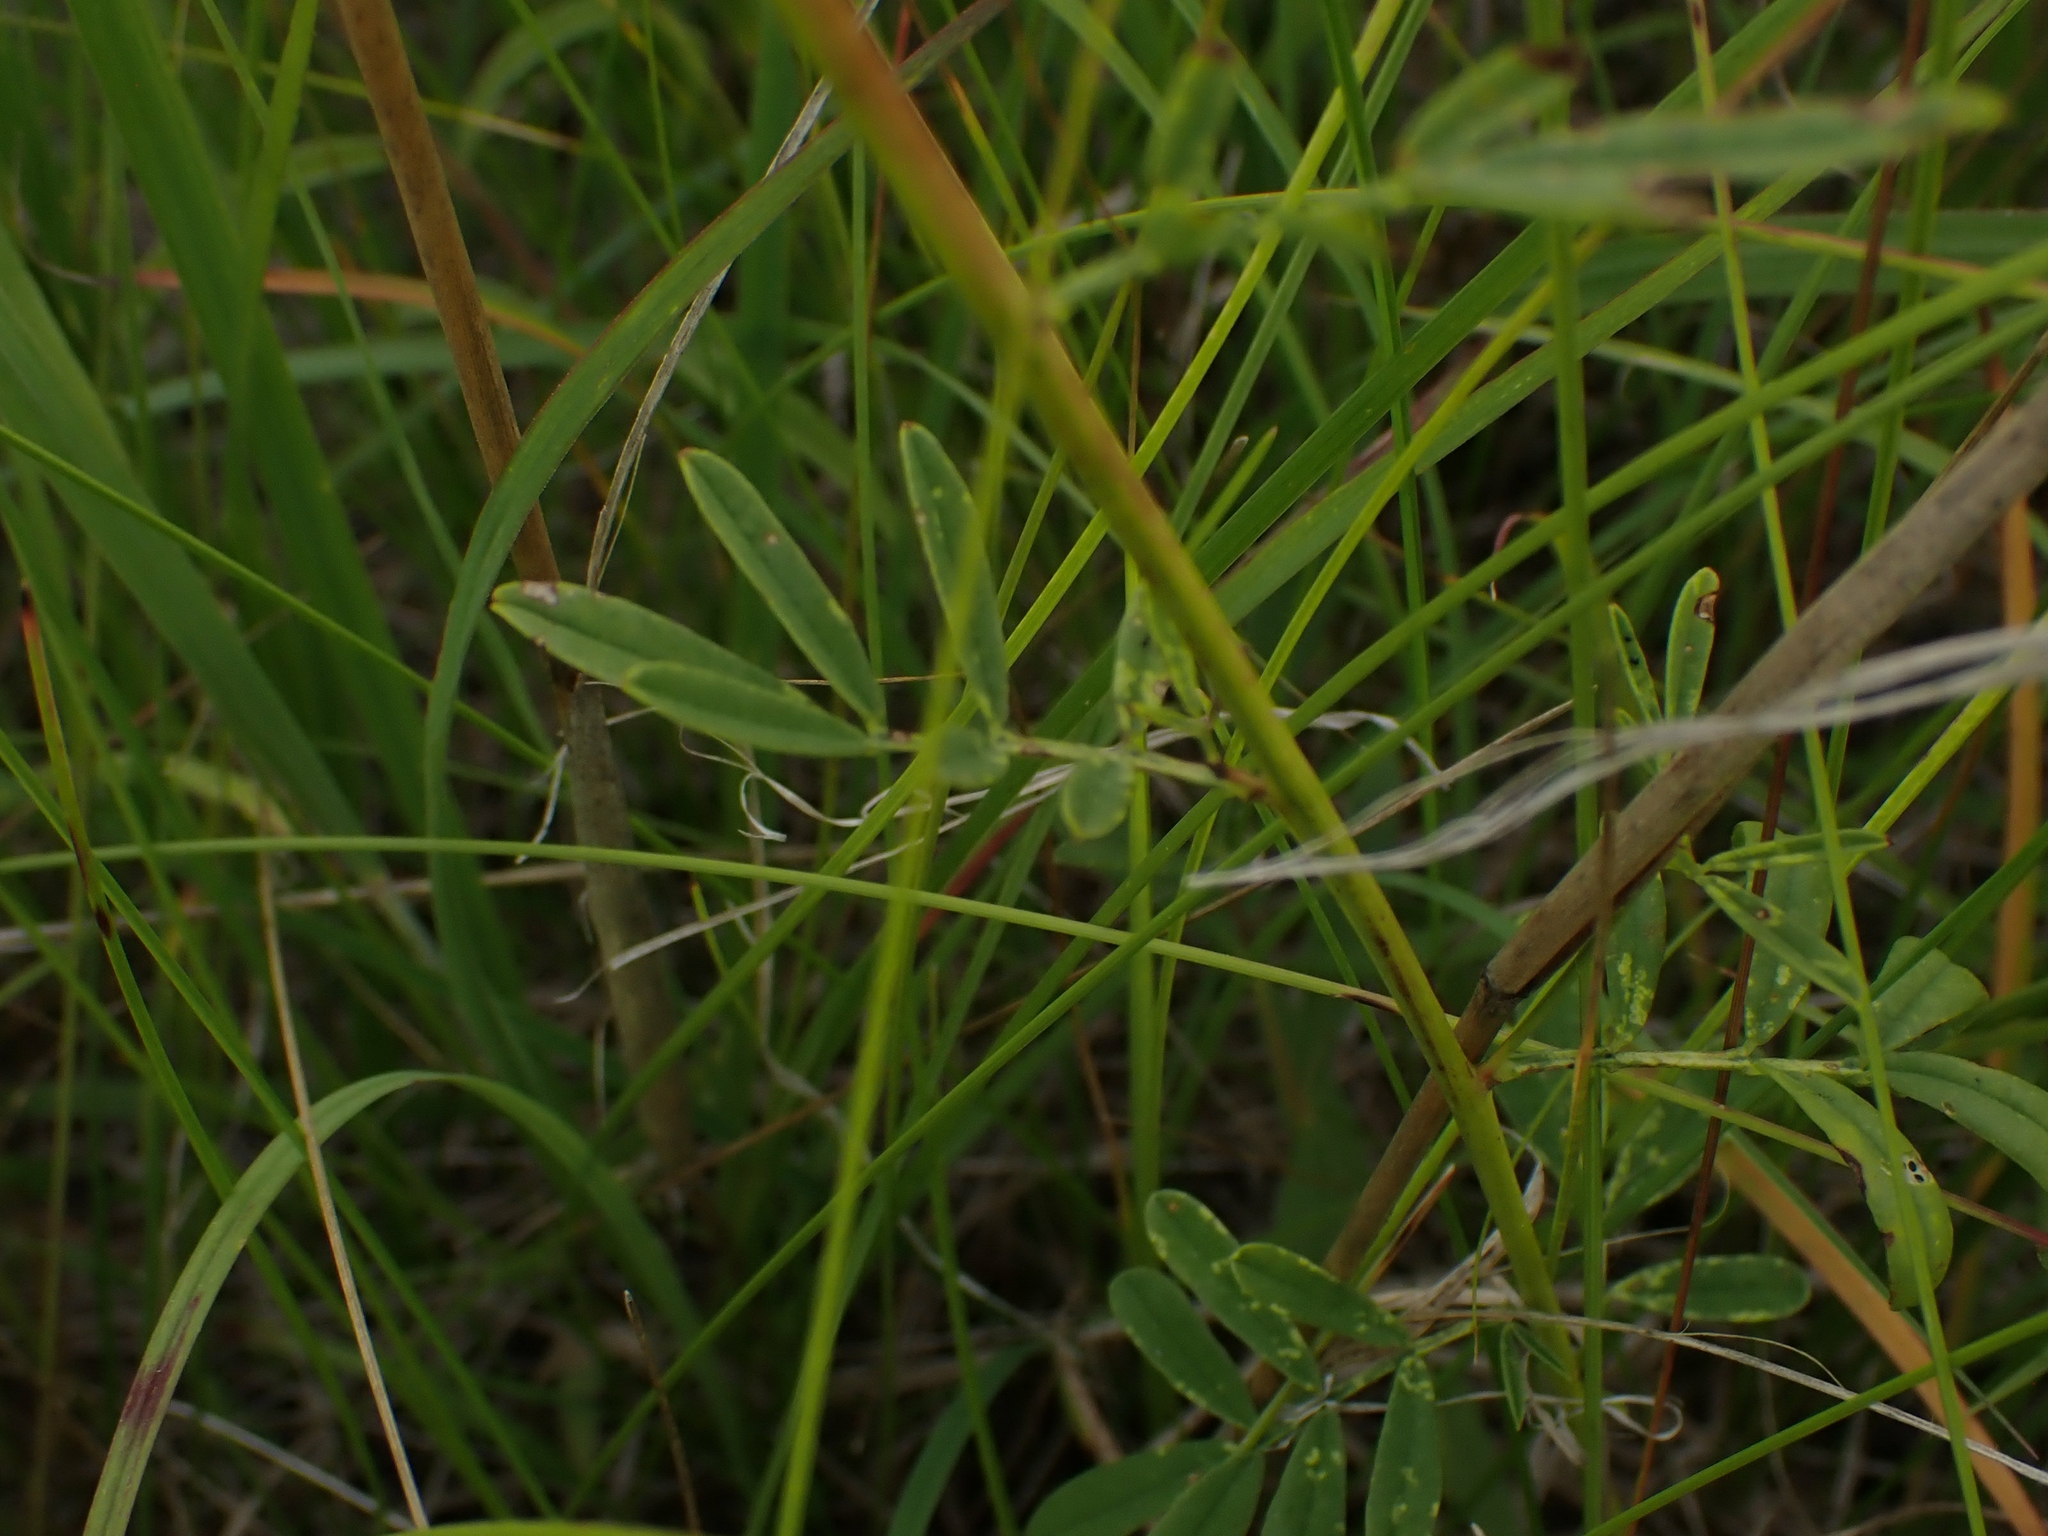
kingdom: Plantae
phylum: Tracheophyta
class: Magnoliopsida
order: Fabales
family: Fabaceae
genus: Dalea
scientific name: Dalea candida
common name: White prairie-clover
